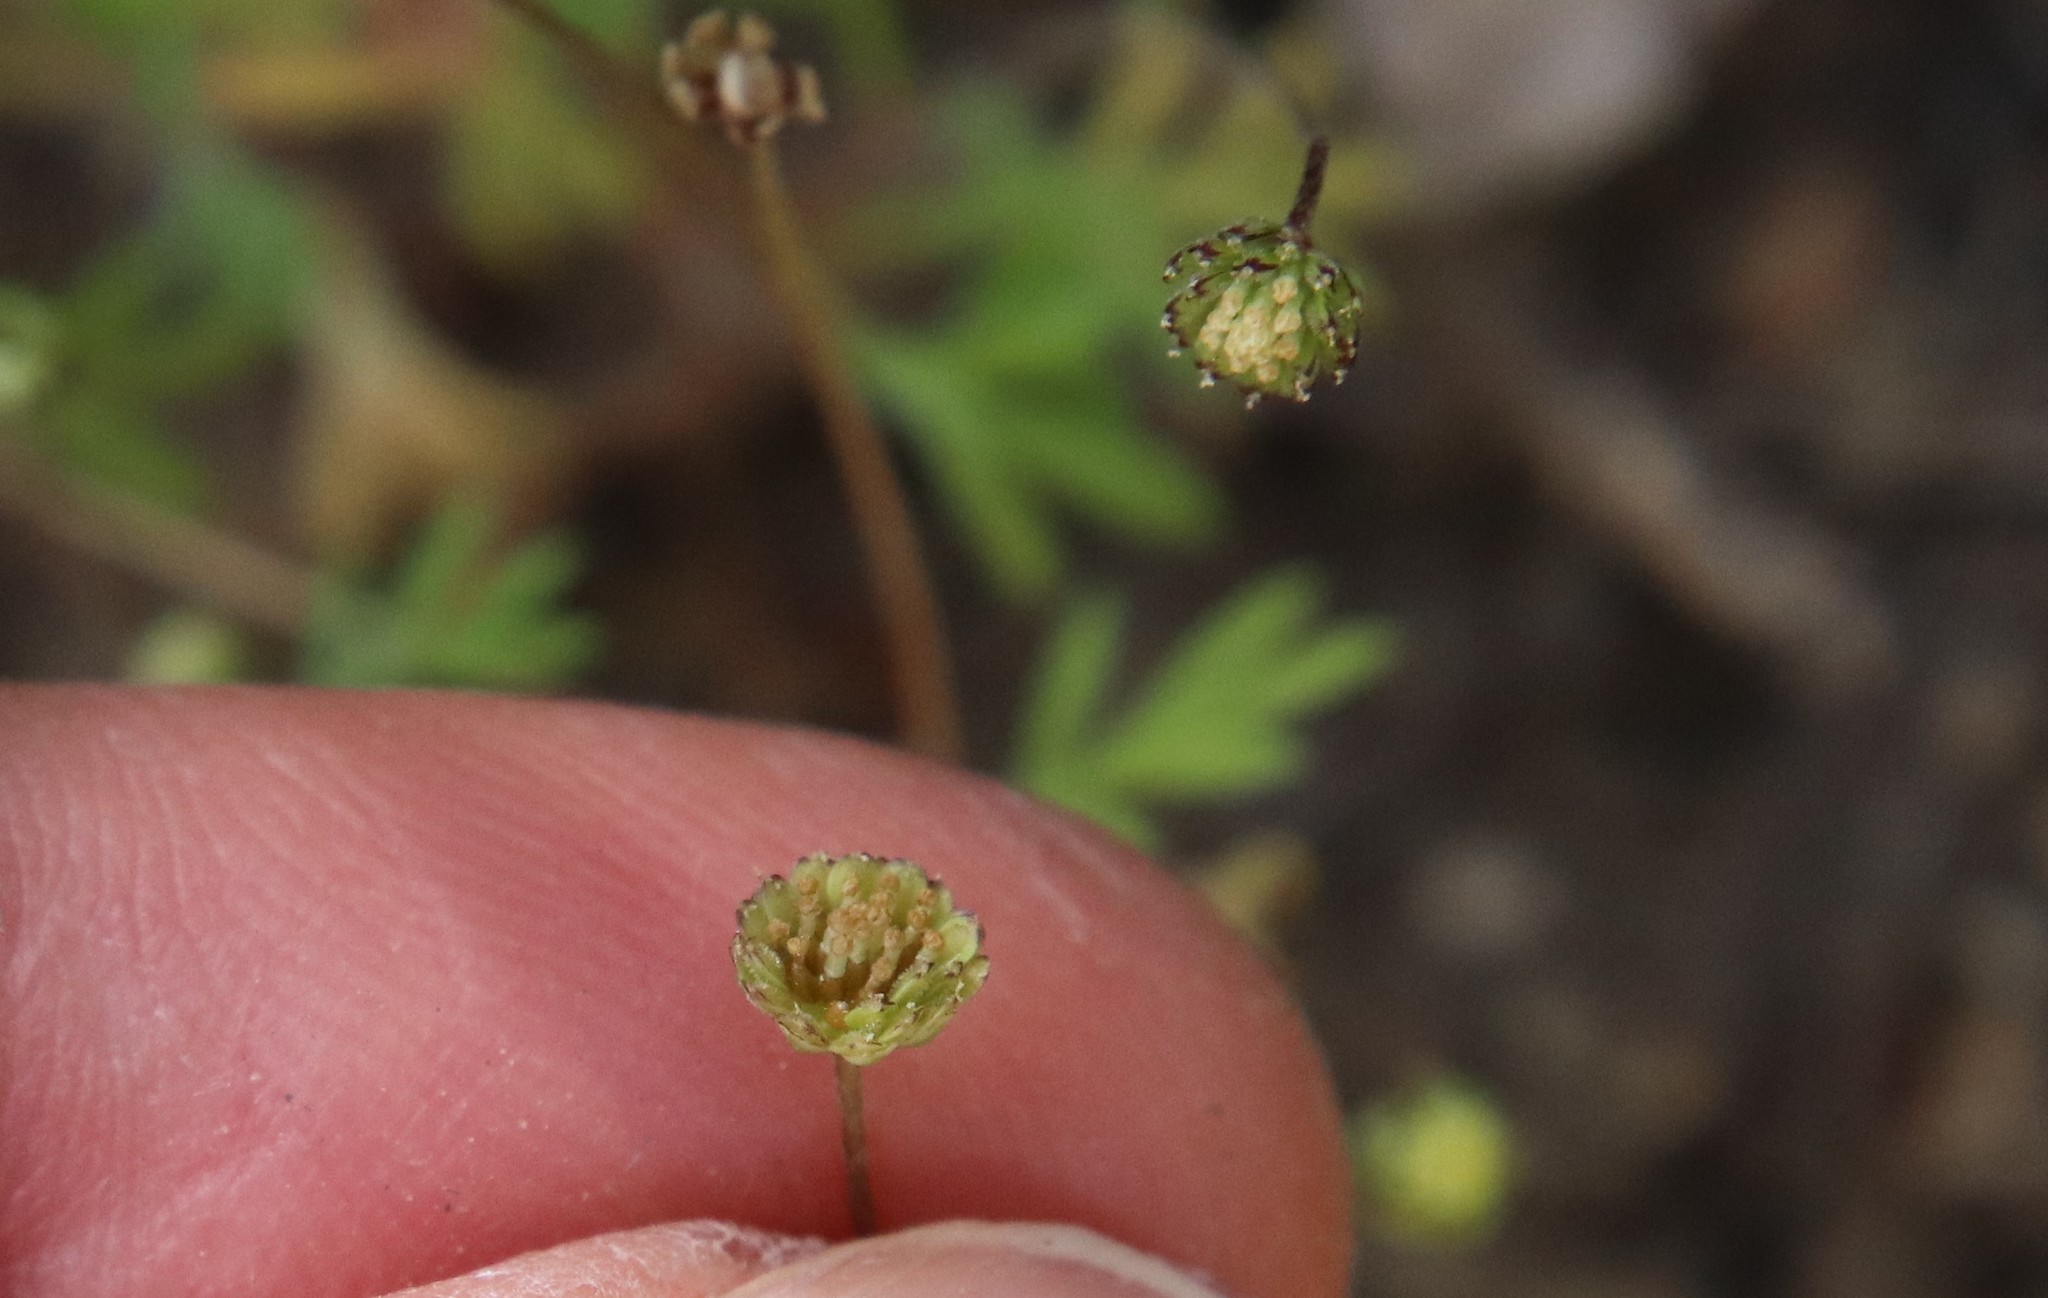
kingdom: Plantae
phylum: Tracheophyta
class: Magnoliopsida
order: Asterales
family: Asteraceae
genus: Cotula
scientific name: Cotula australis
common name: Australian waterbuttons
